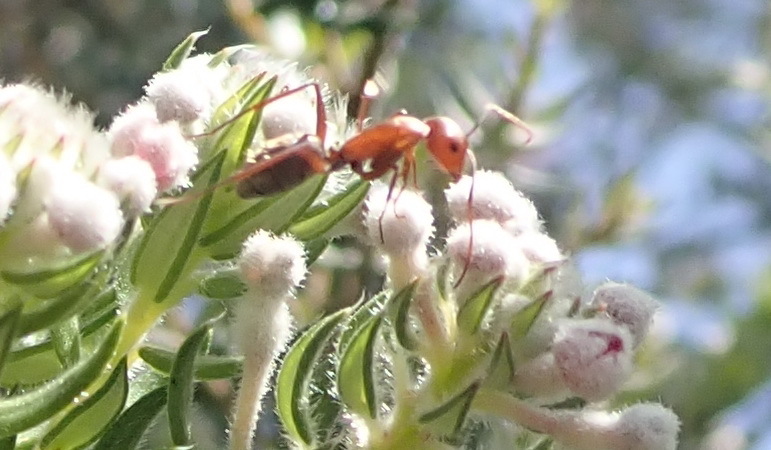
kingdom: Animalia
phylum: Arthropoda
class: Insecta
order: Hymenoptera
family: Formicidae
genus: Camponotus
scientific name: Camponotus vestitus
